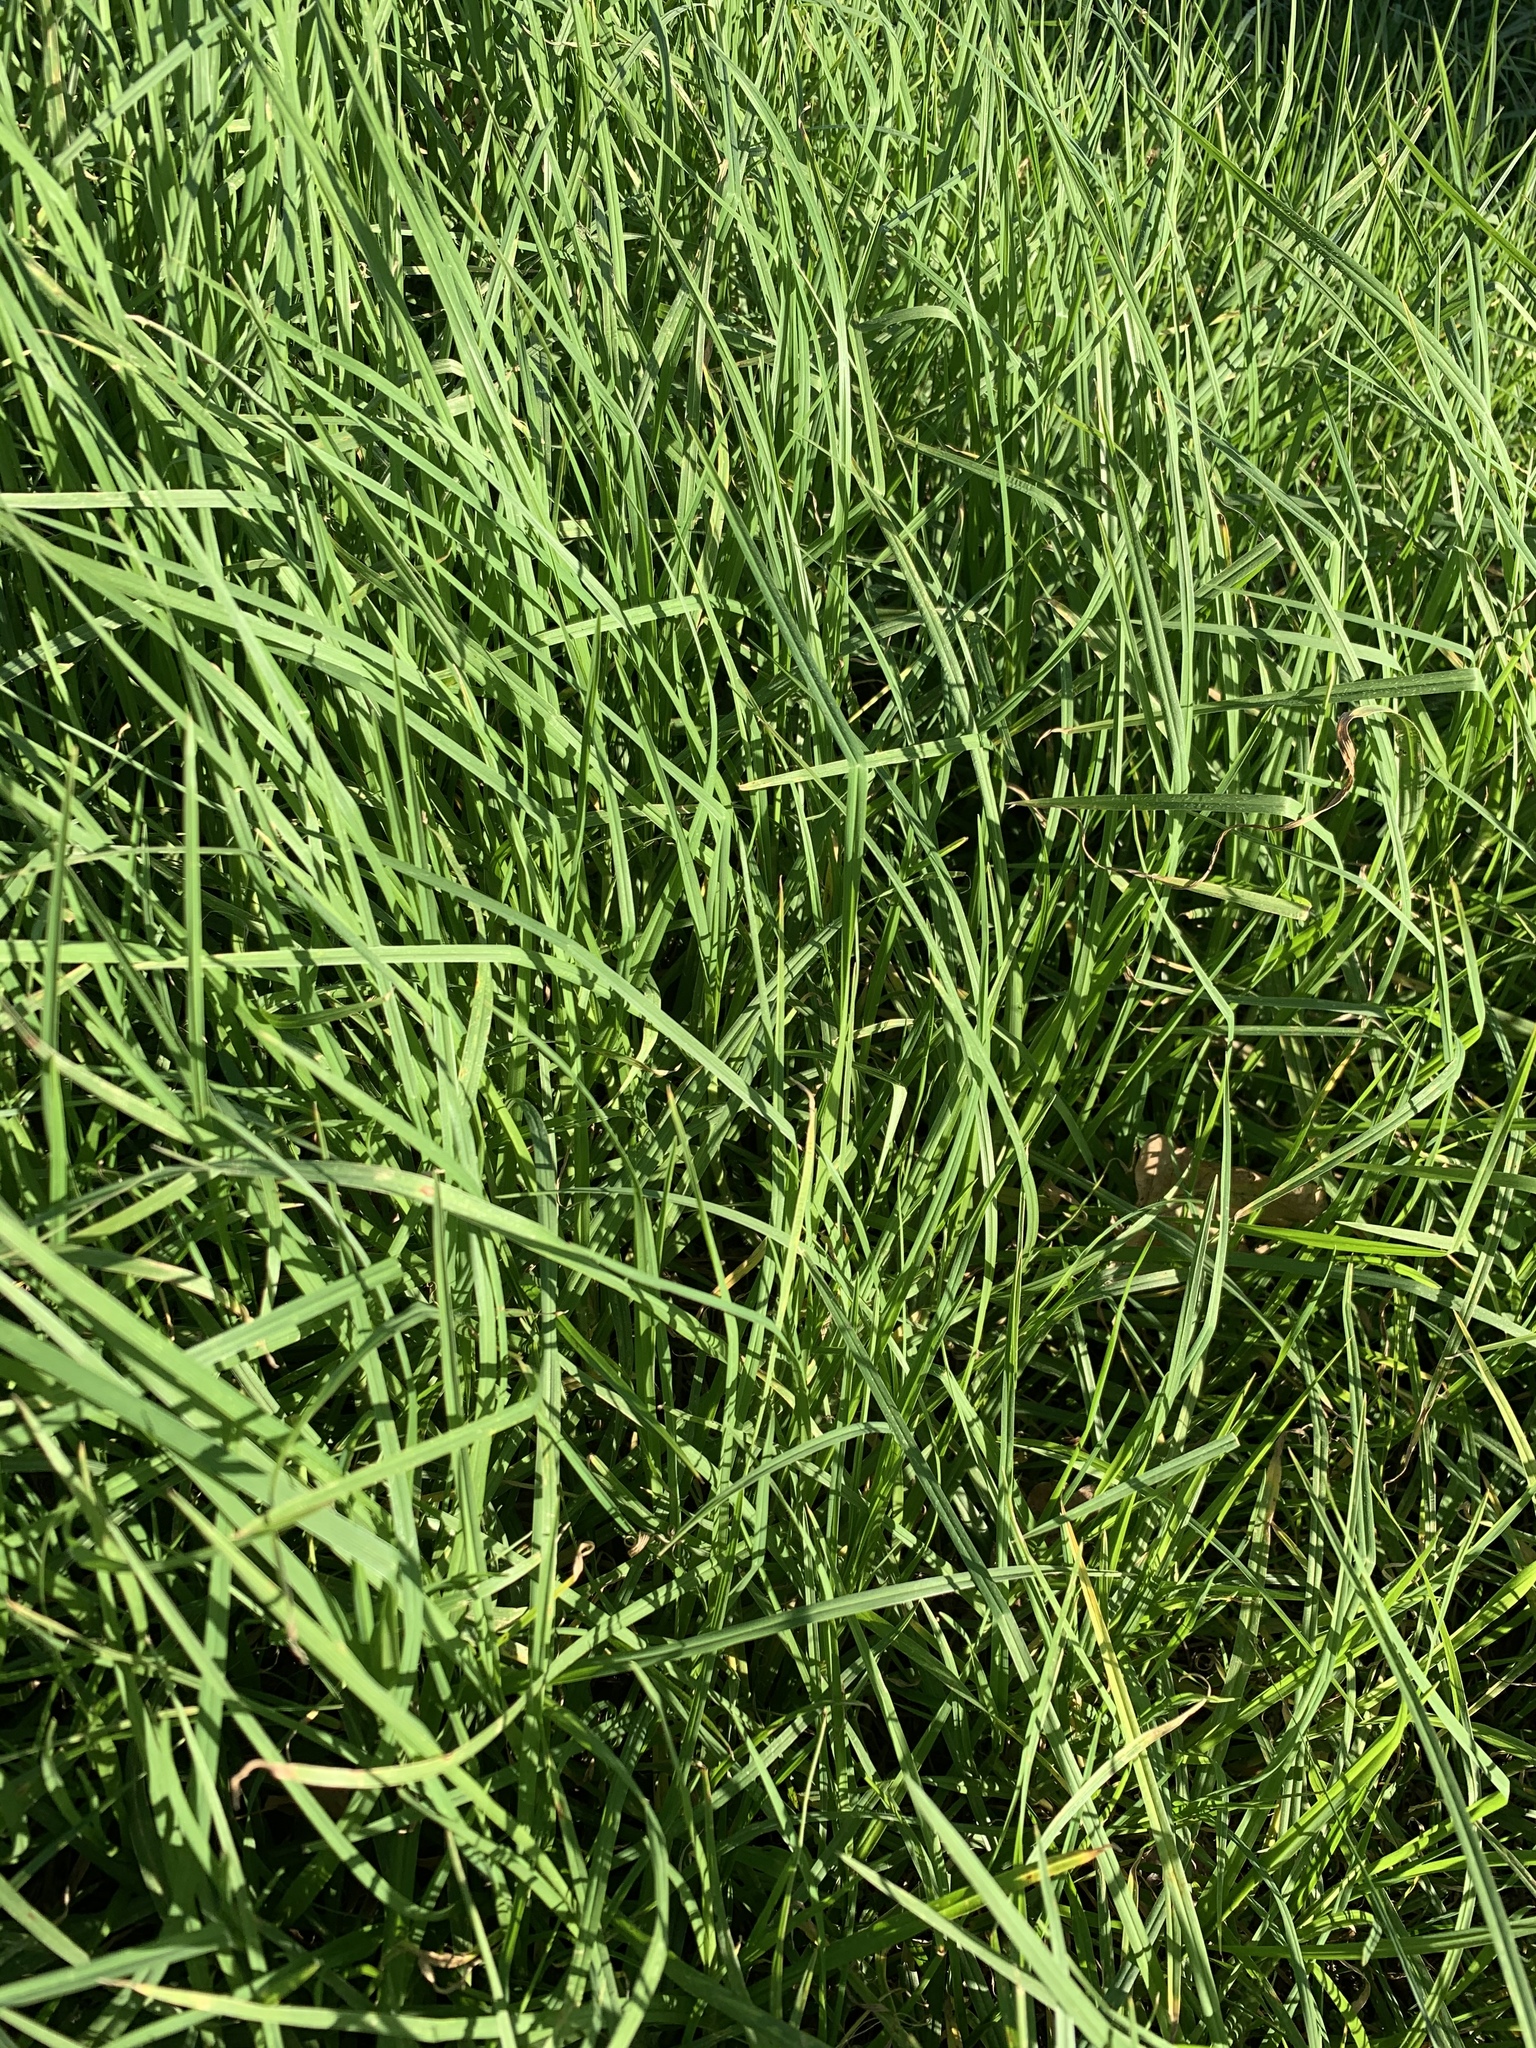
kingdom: Plantae
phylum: Tracheophyta
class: Liliopsida
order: Poales
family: Poaceae
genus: Cenchrus
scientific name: Cenchrus clandestinus
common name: Kikuyugrass
